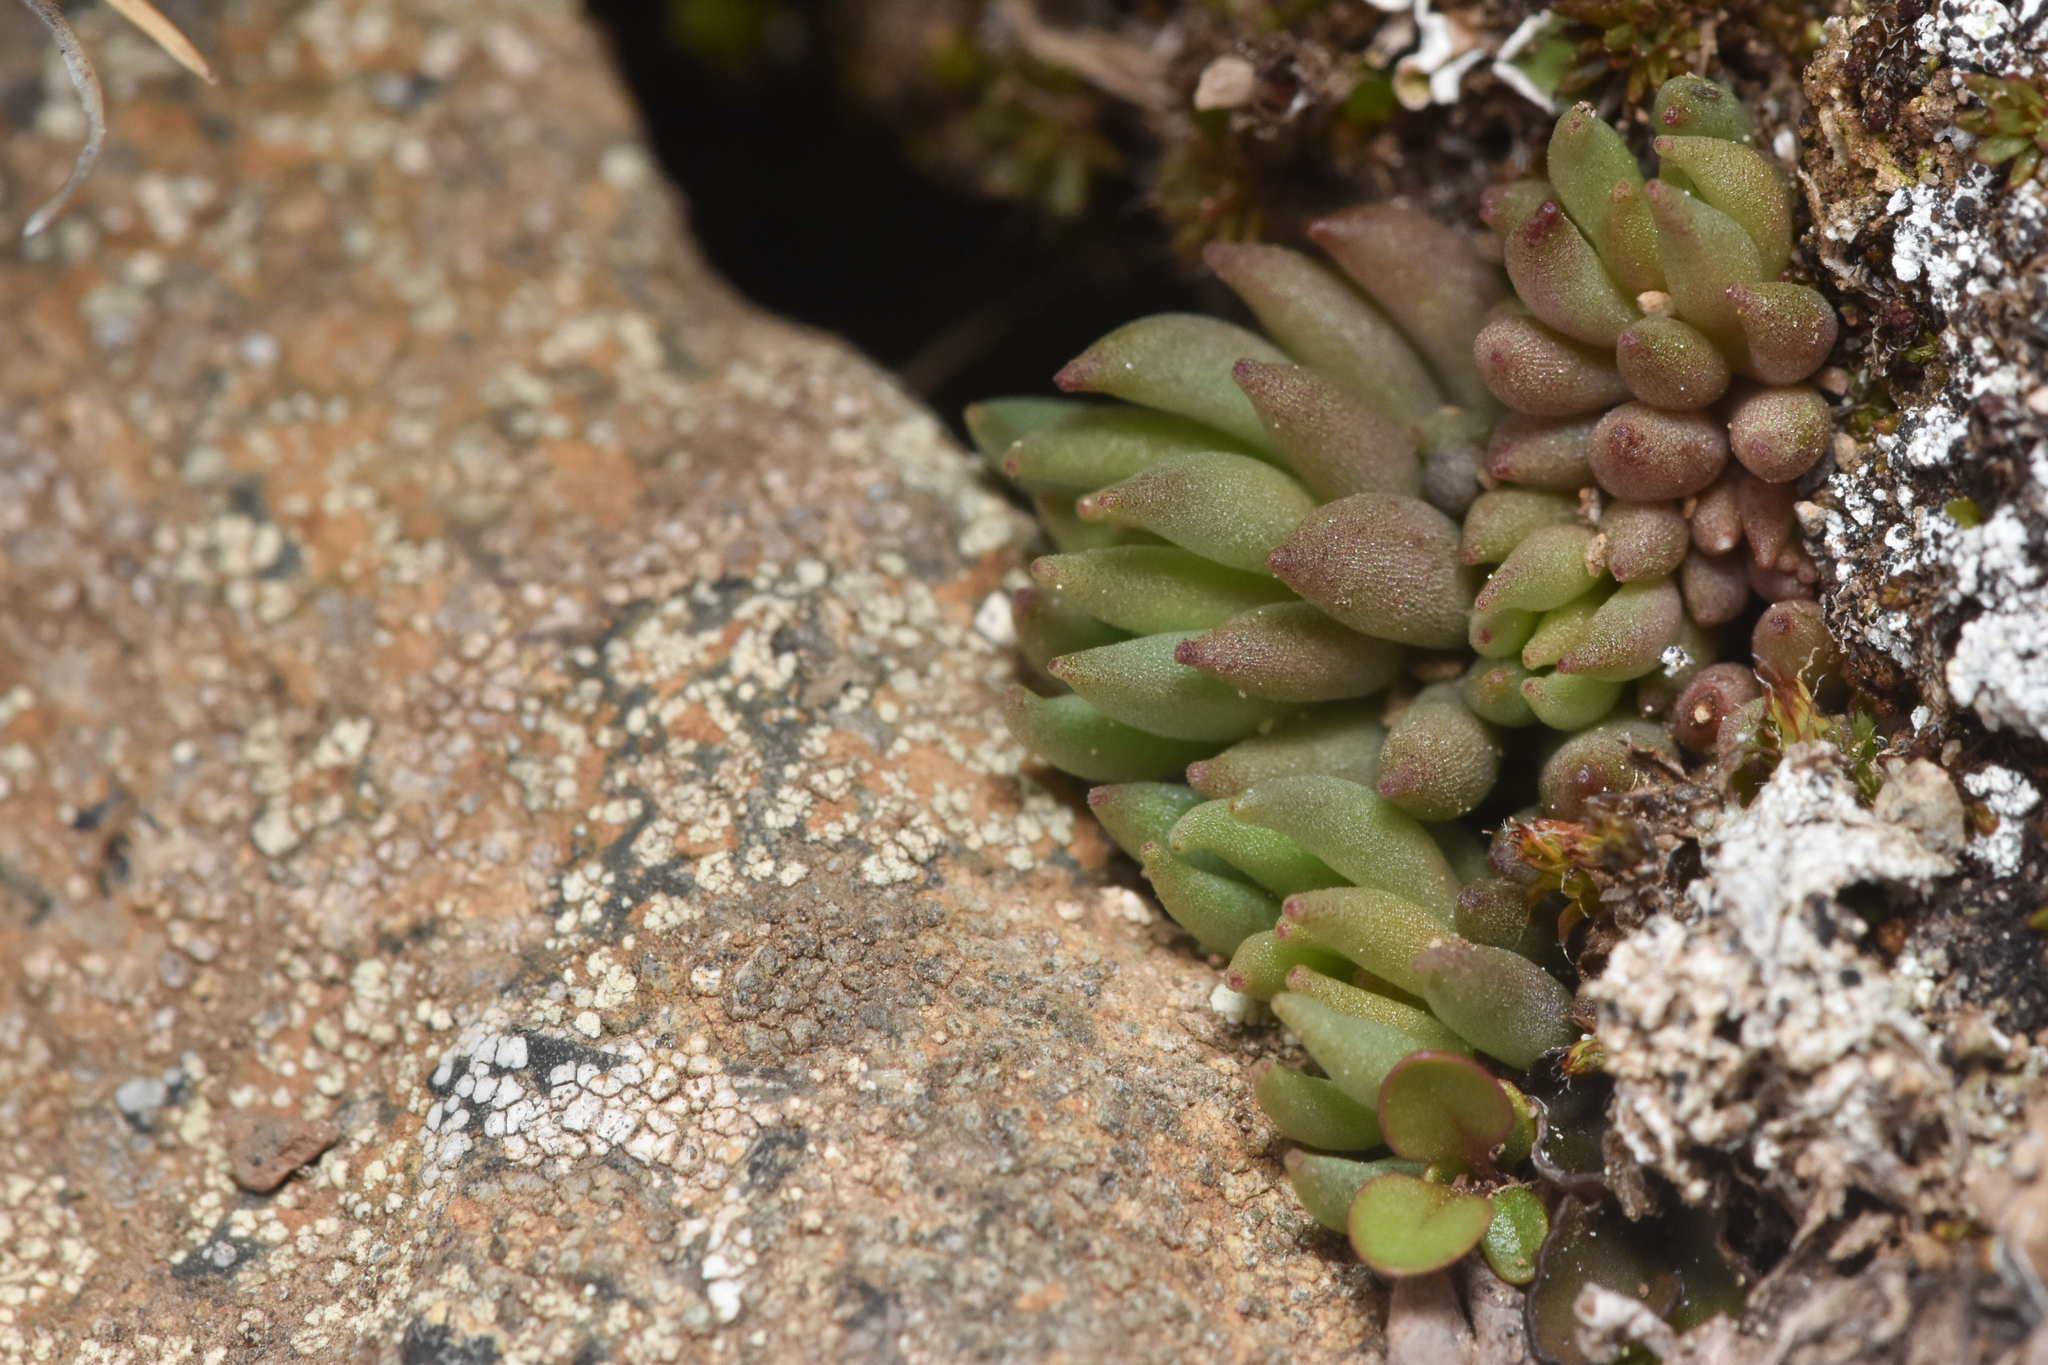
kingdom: Plantae
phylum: Tracheophyta
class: Magnoliopsida
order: Saxifragales
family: Crassulaceae
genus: Sedum
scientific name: Sedum lanceolatum
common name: Common stonecrop
